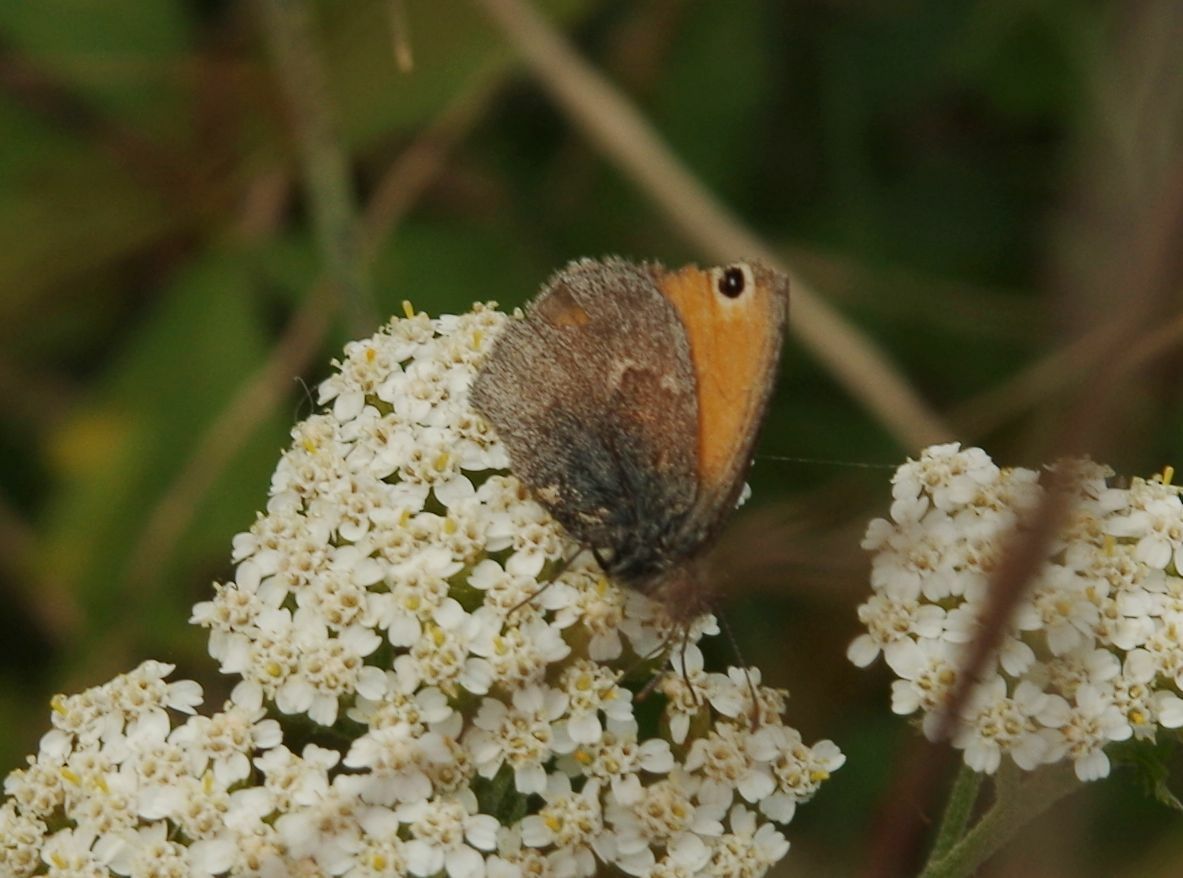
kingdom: Animalia
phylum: Arthropoda
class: Insecta
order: Lepidoptera
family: Nymphalidae
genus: Coenonympha
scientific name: Coenonympha pamphilus
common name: Small heath
